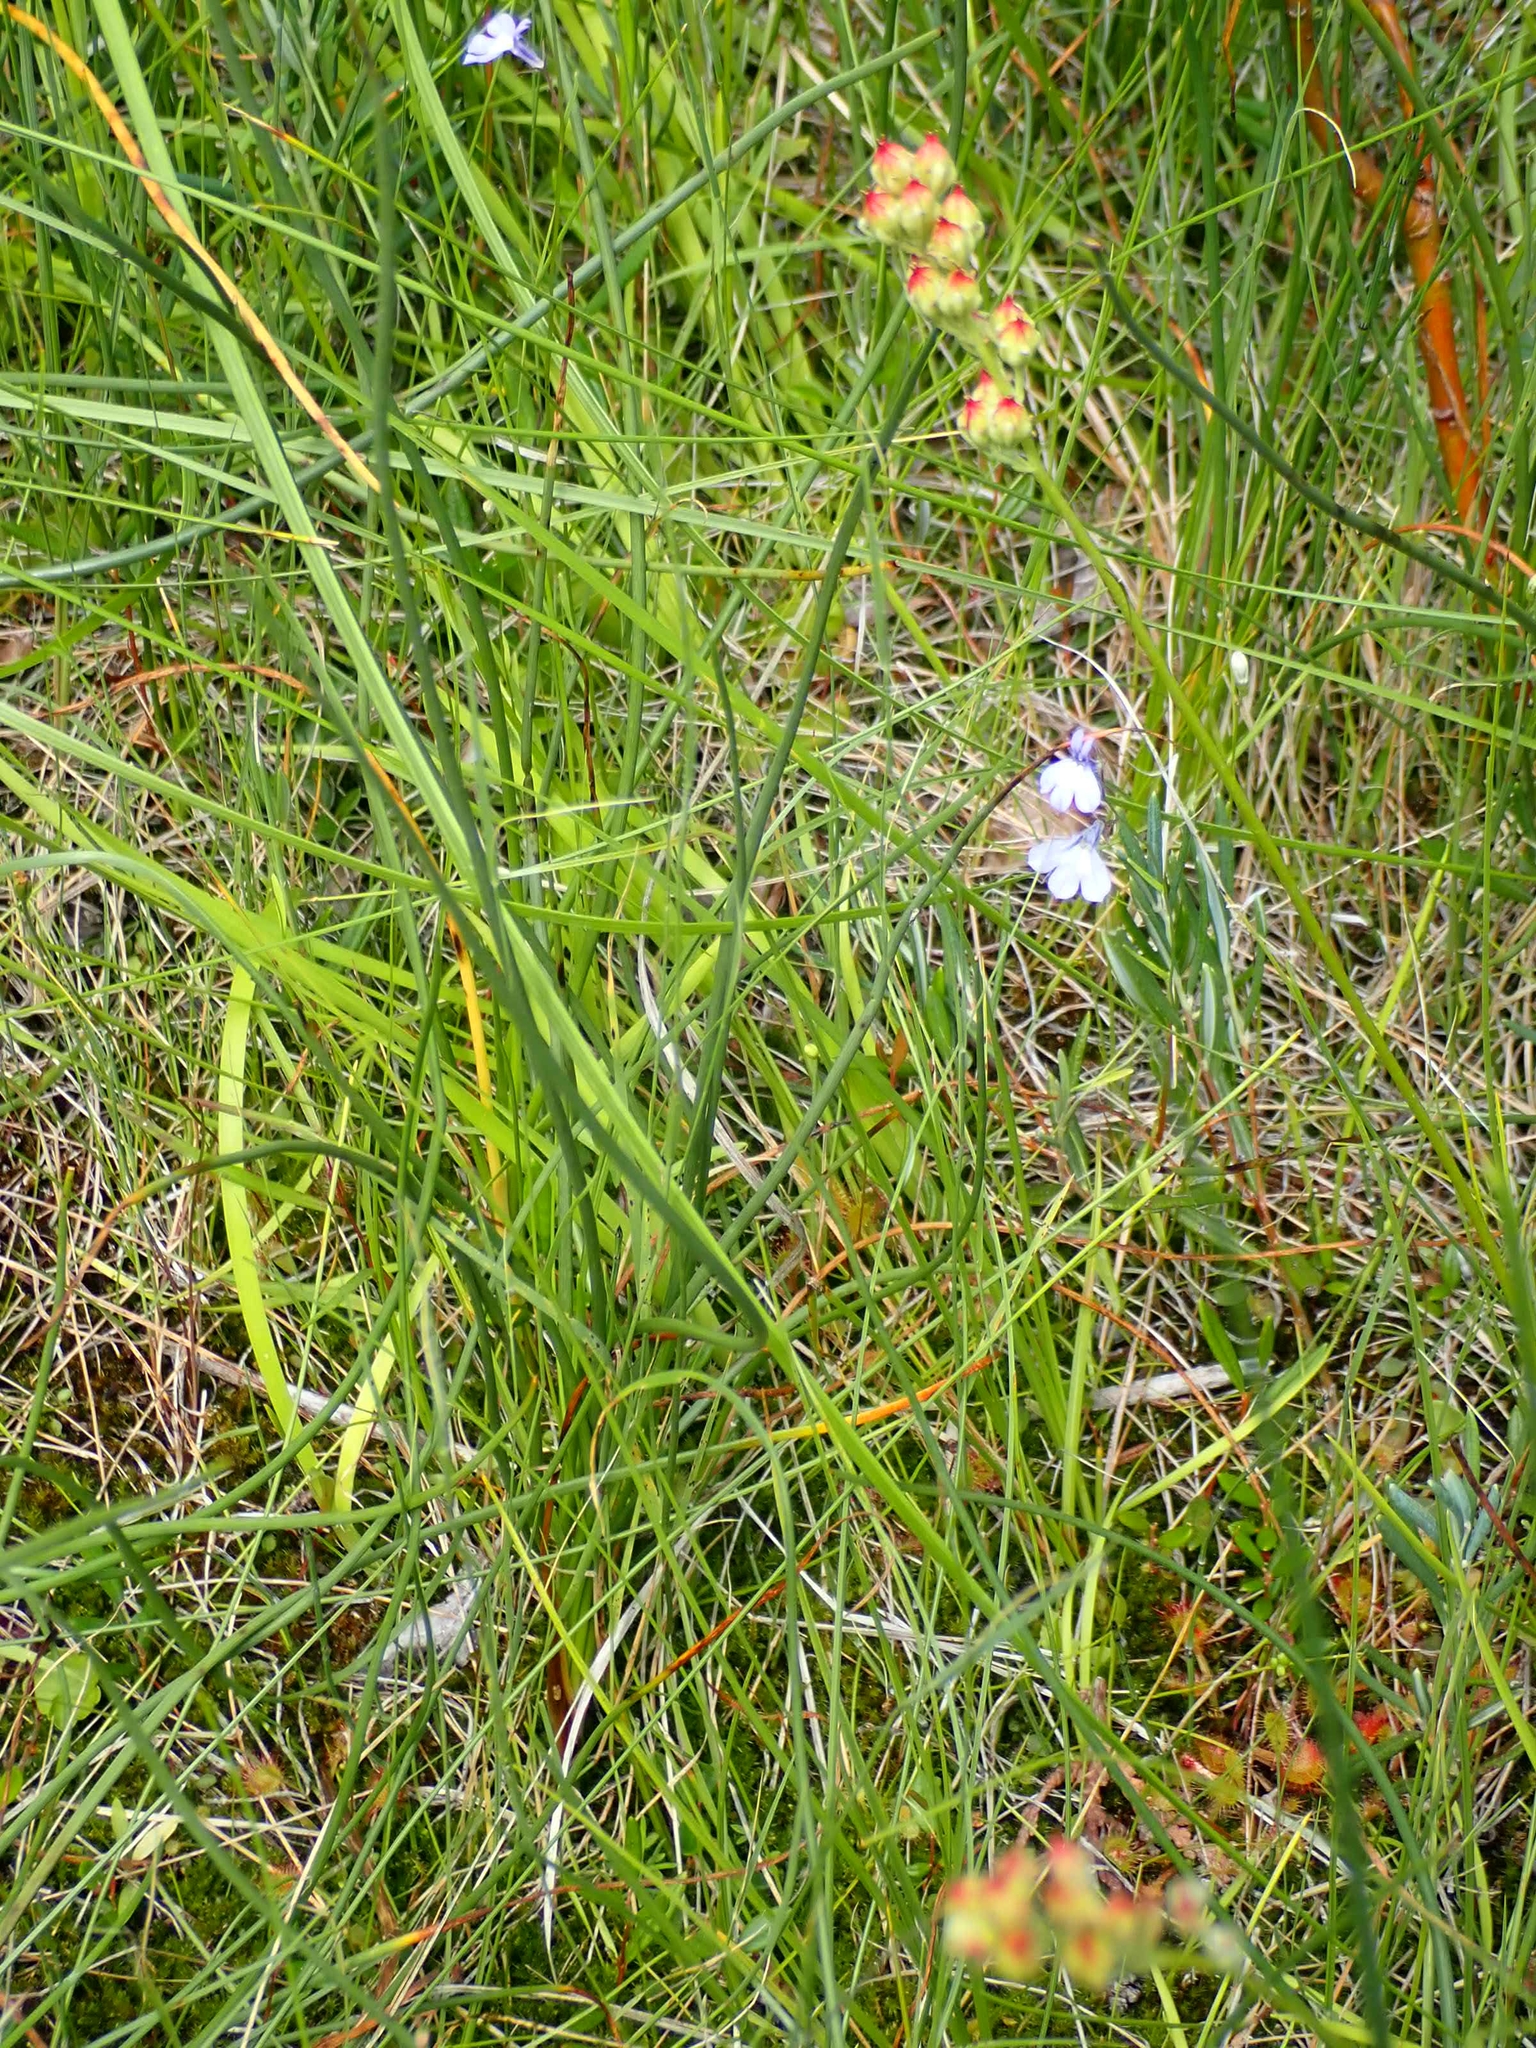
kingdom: Plantae
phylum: Tracheophyta
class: Liliopsida
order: Alismatales
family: Tofieldiaceae
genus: Triantha
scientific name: Triantha glutinosa
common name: Glutinous tofieldia
